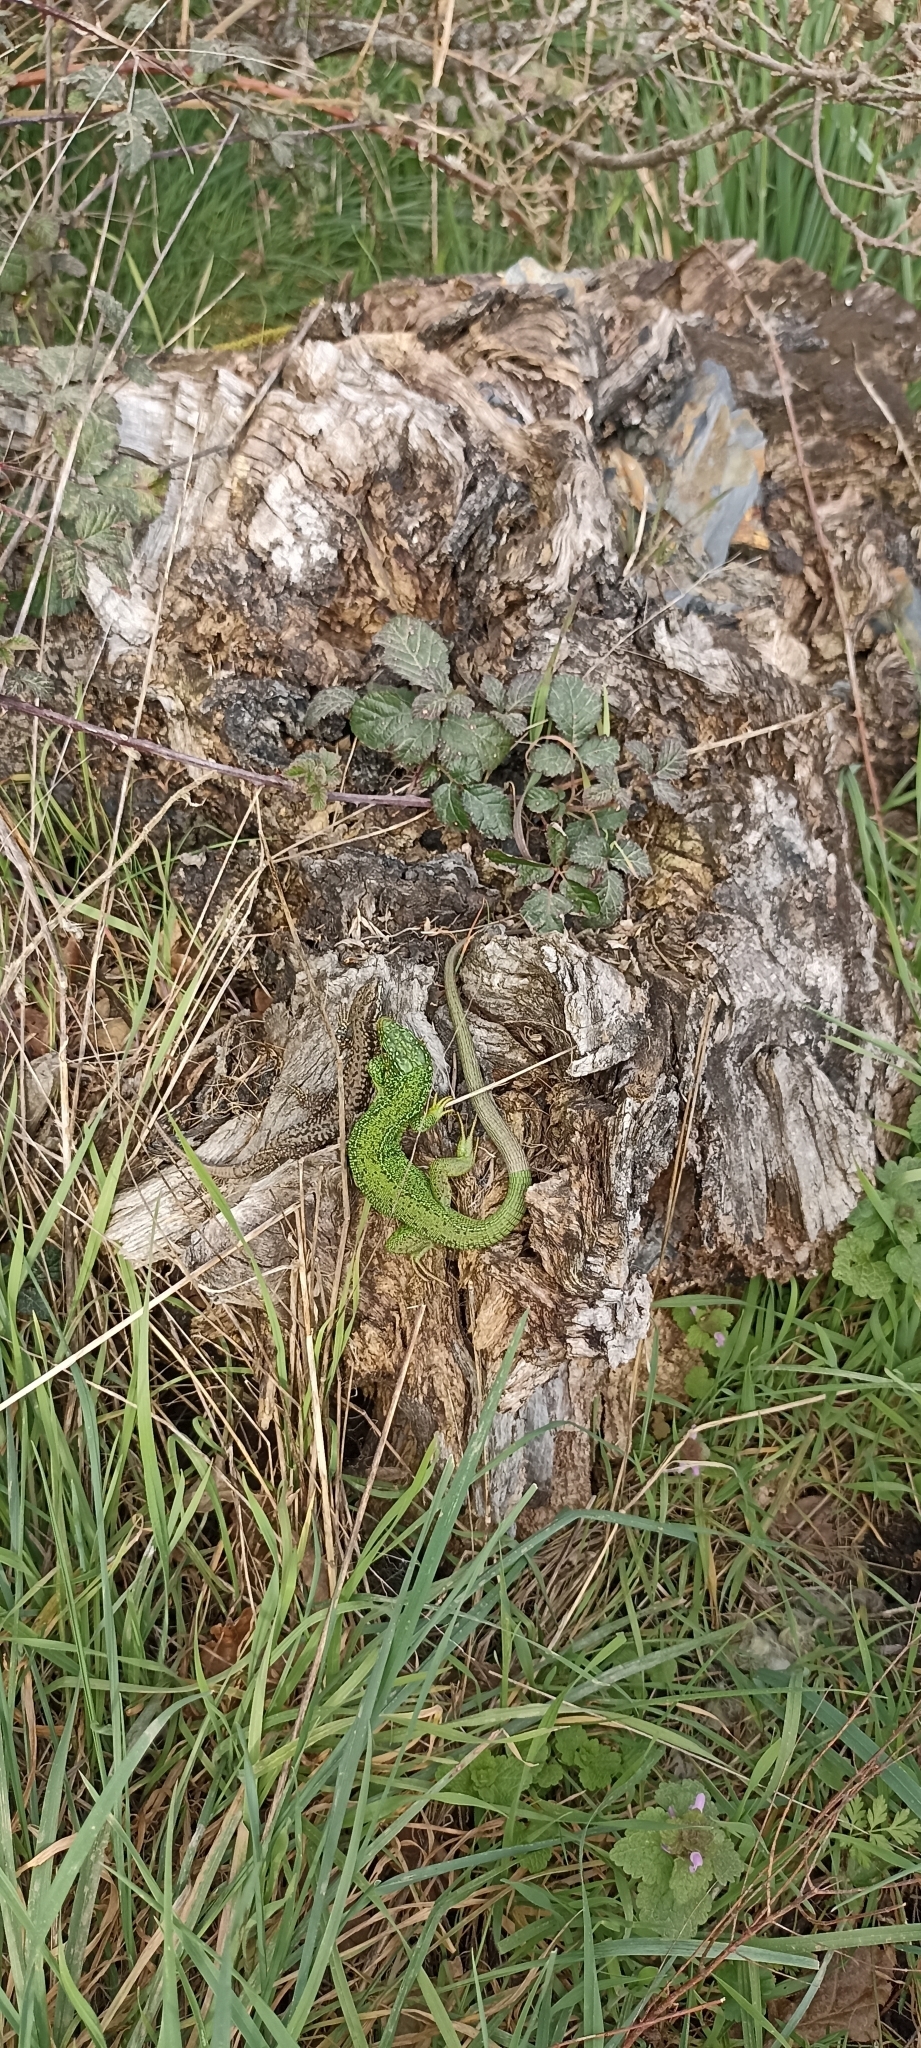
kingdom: Animalia
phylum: Chordata
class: Squamata
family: Lacertidae
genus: Lacerta
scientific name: Lacerta bilineata
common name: Western green lizard
